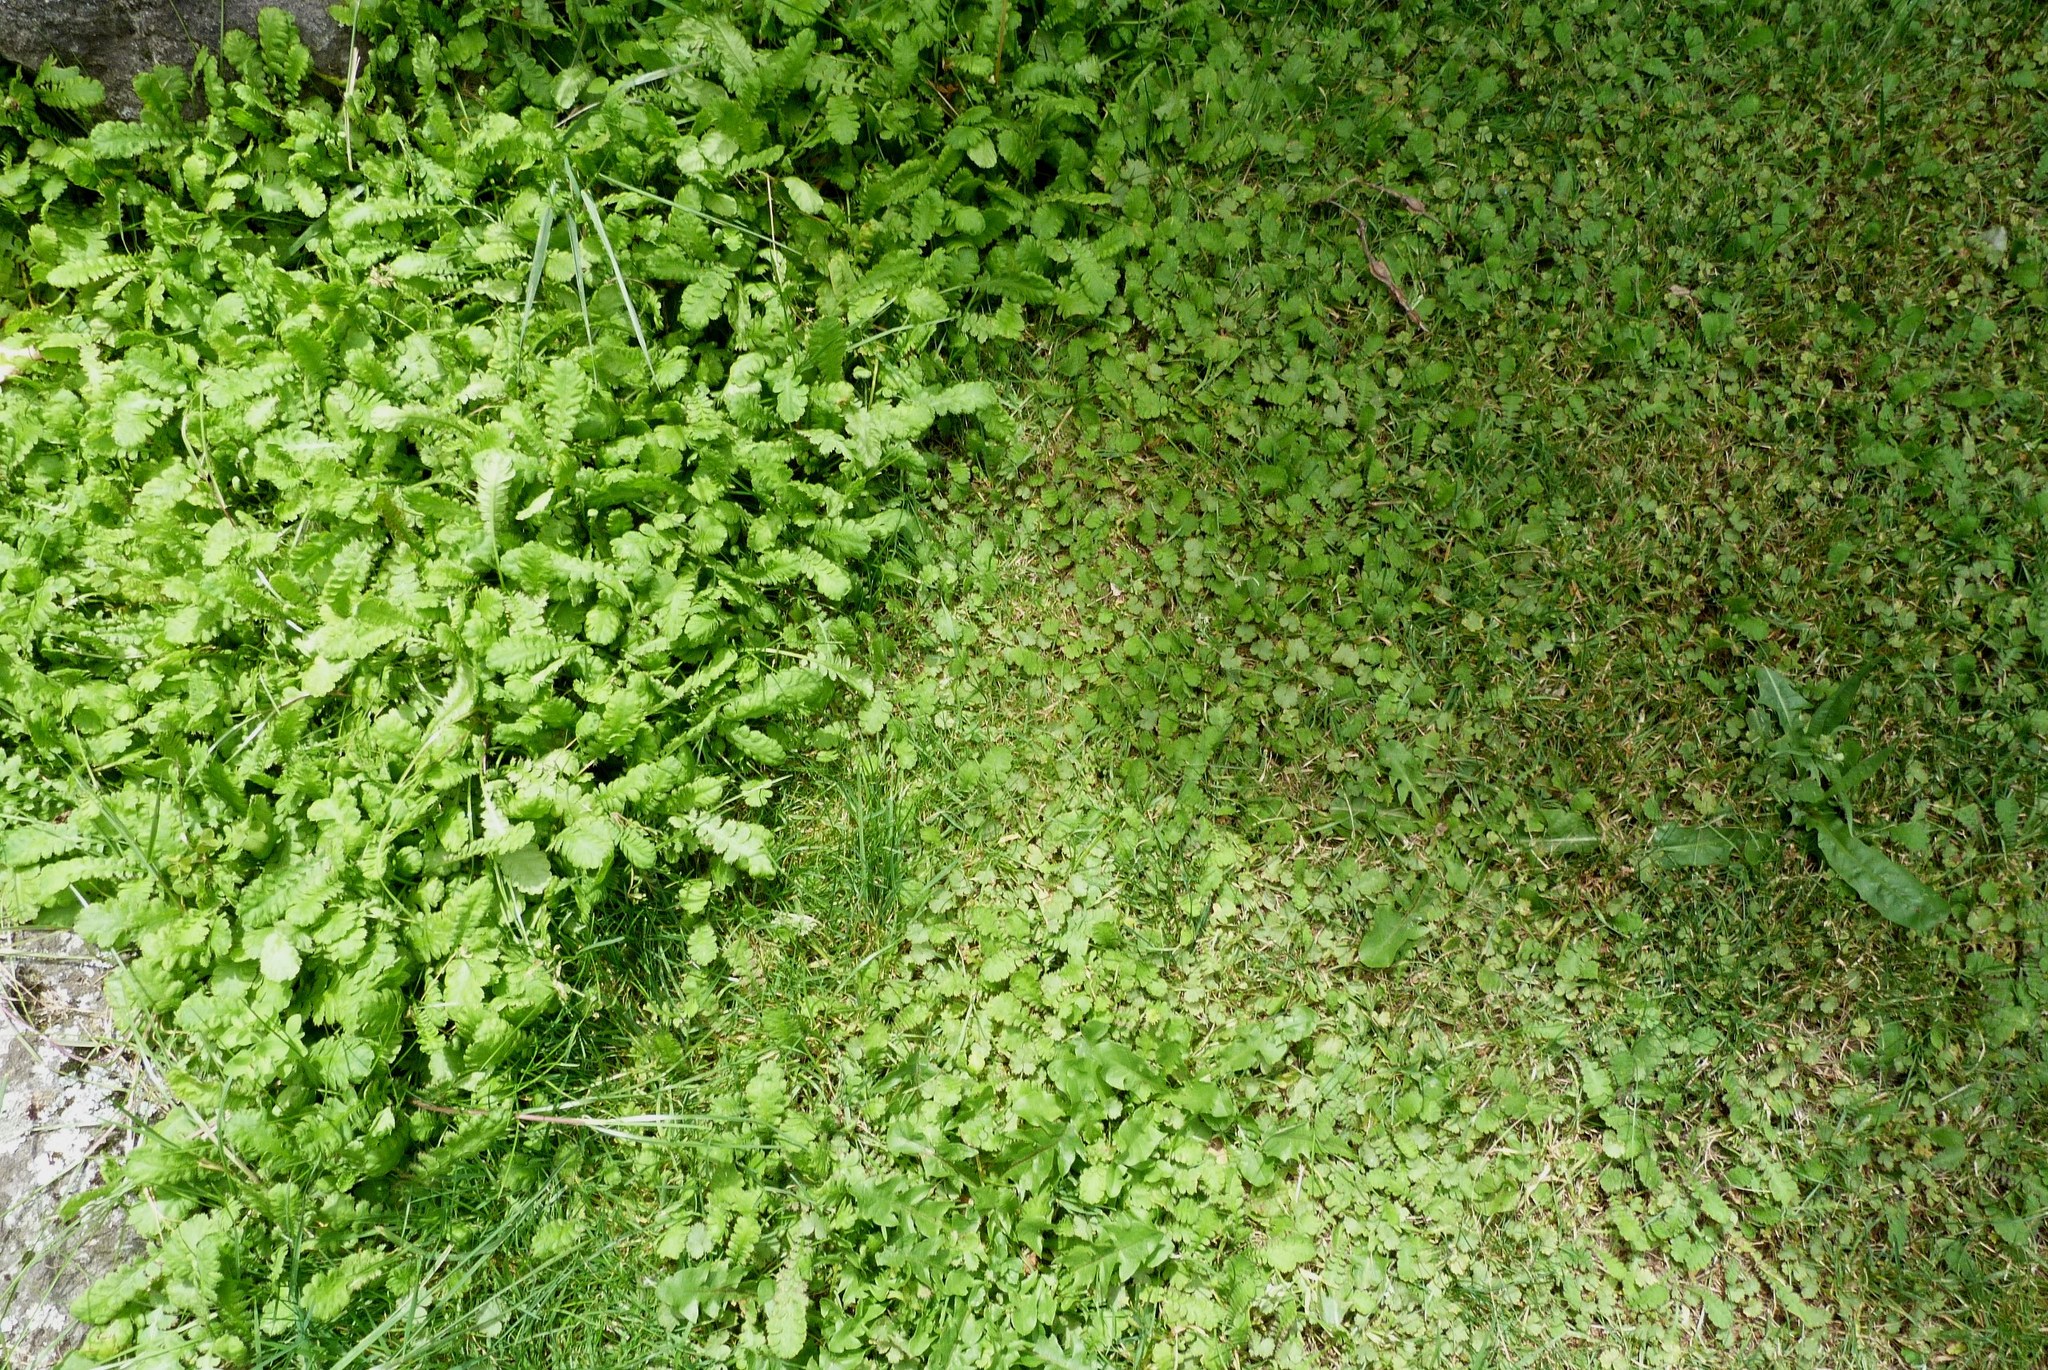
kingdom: Plantae
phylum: Tracheophyta
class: Magnoliopsida
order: Asterales
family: Asteraceae
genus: Leptinella
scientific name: Leptinella dioica
